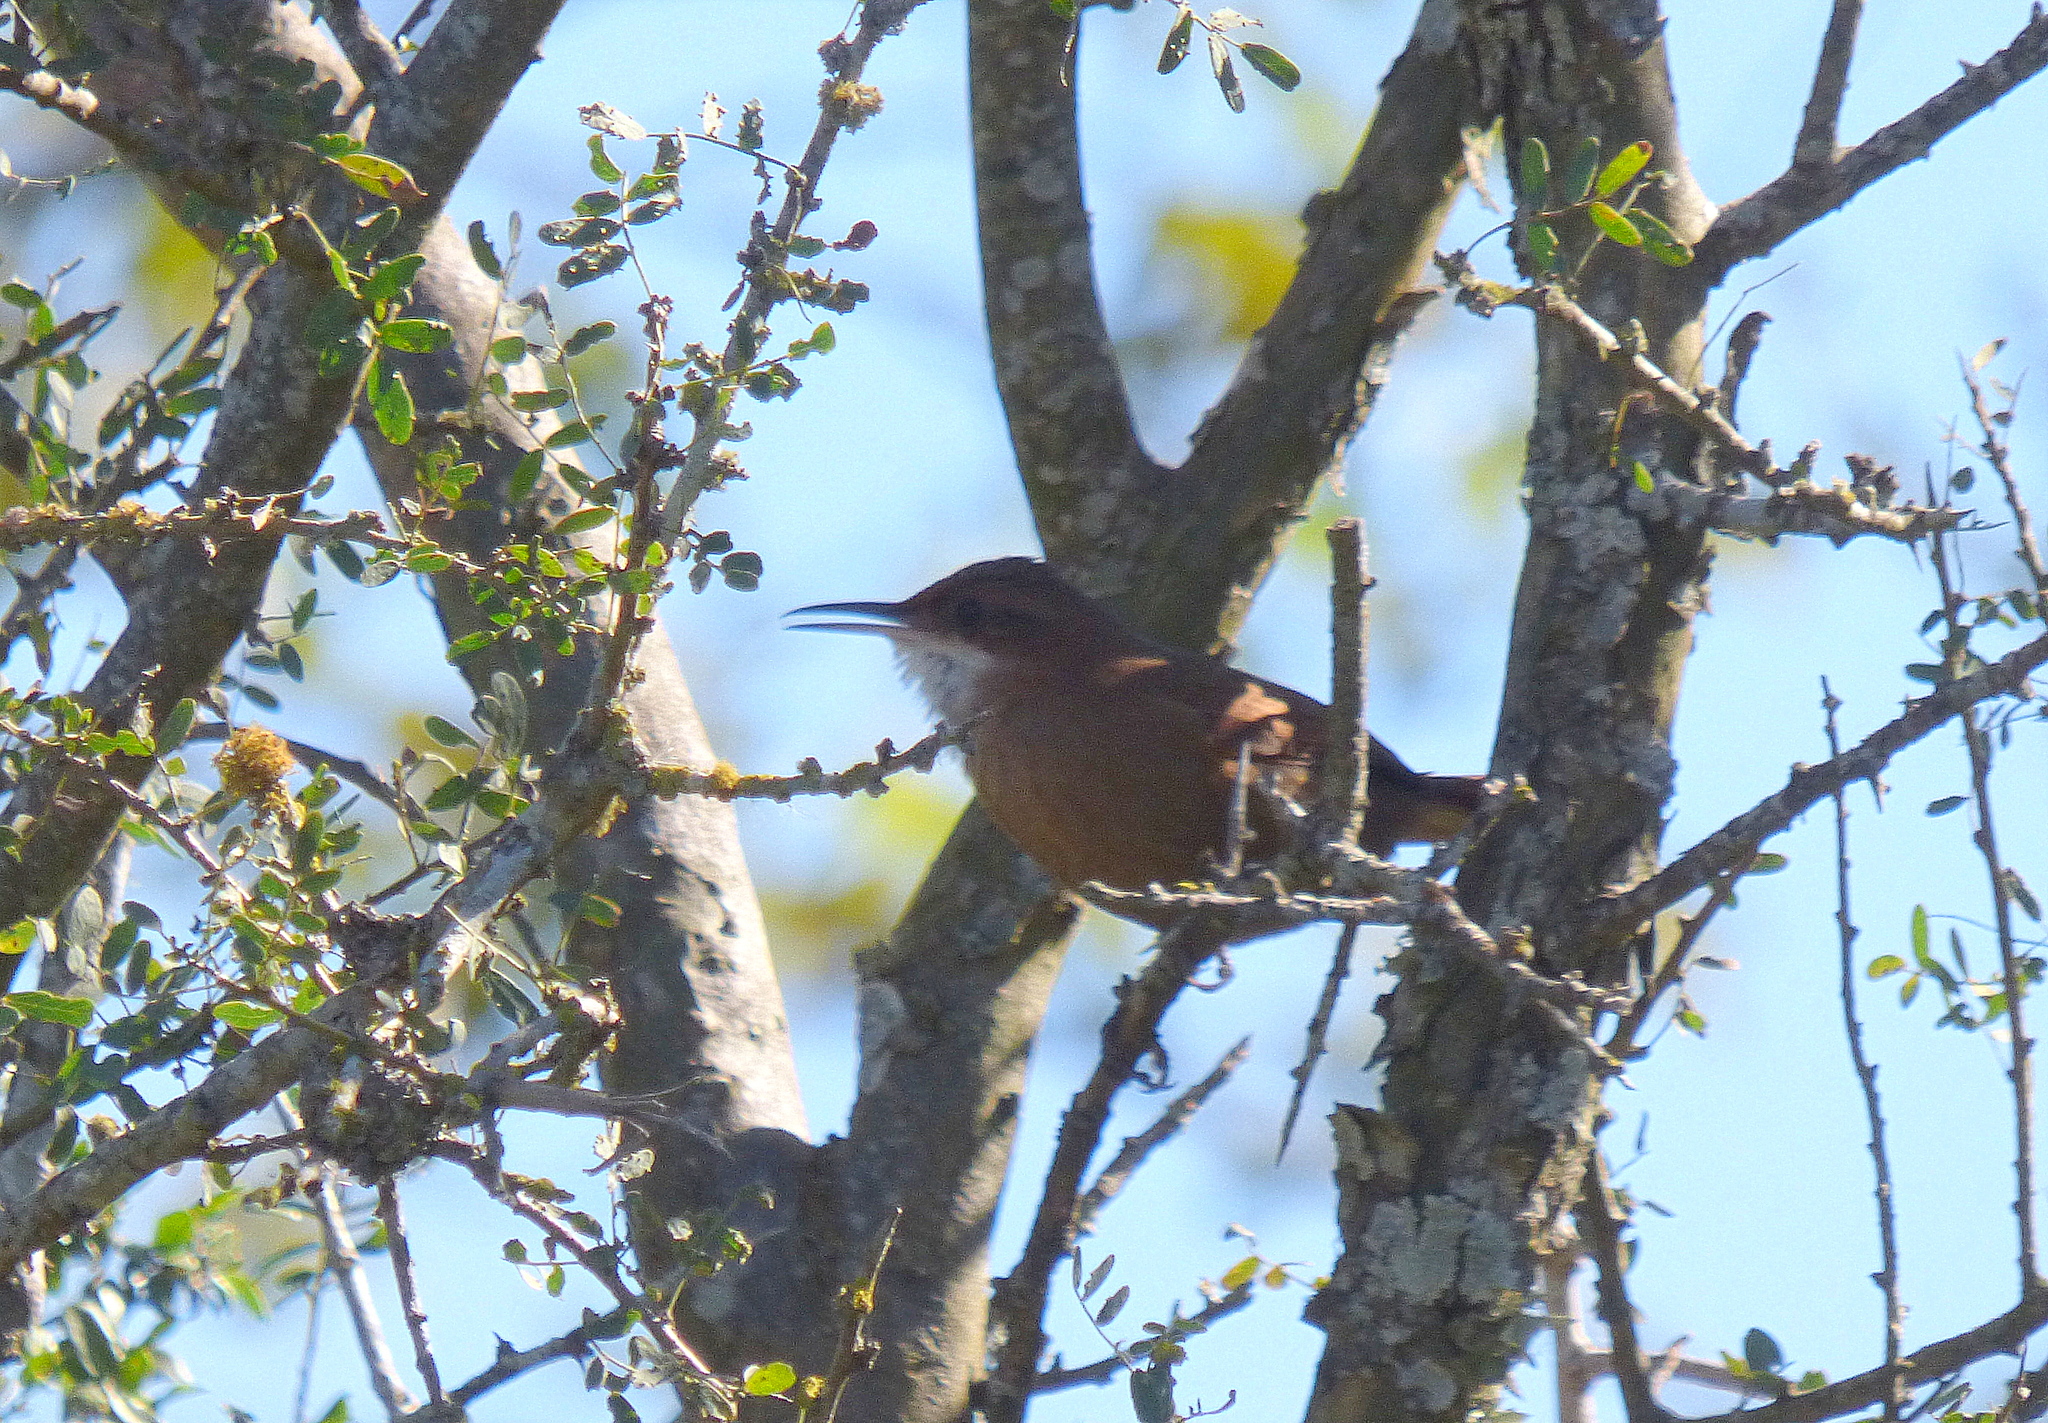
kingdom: Animalia
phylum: Chordata
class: Aves
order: Passeriformes
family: Furnariidae
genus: Upucerthia
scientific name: Upucerthia certhioides
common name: Chaco earthcreeper
